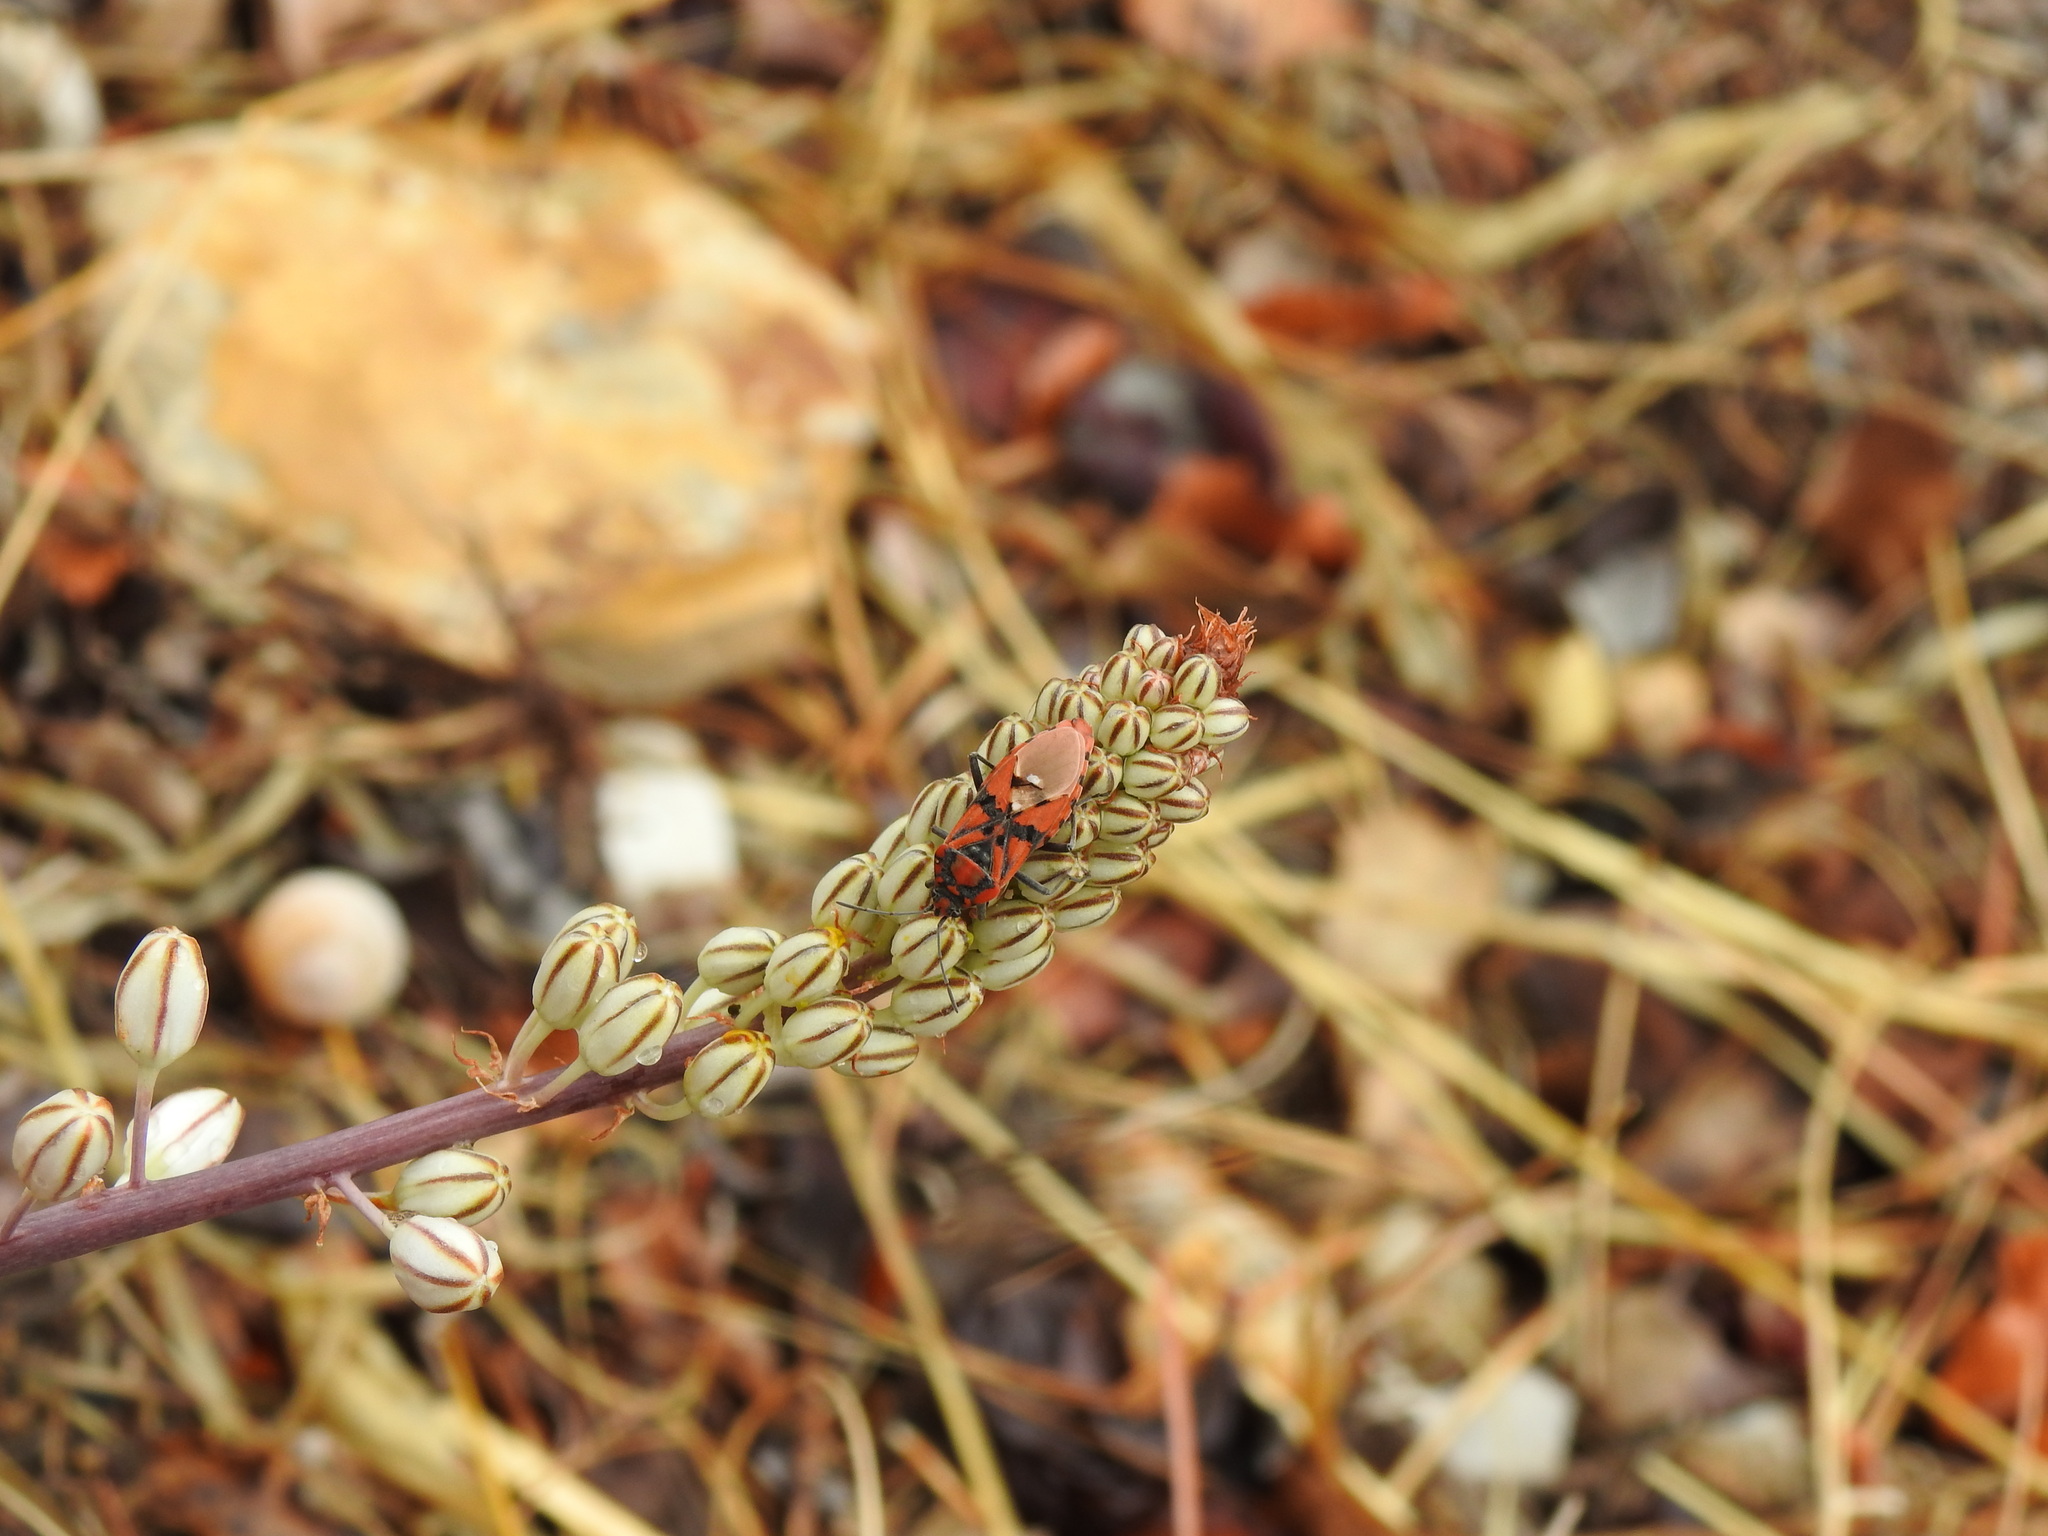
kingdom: Animalia
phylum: Arthropoda
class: Insecta
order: Hemiptera
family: Lygaeidae
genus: Spilostethus
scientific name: Spilostethus pandurus
